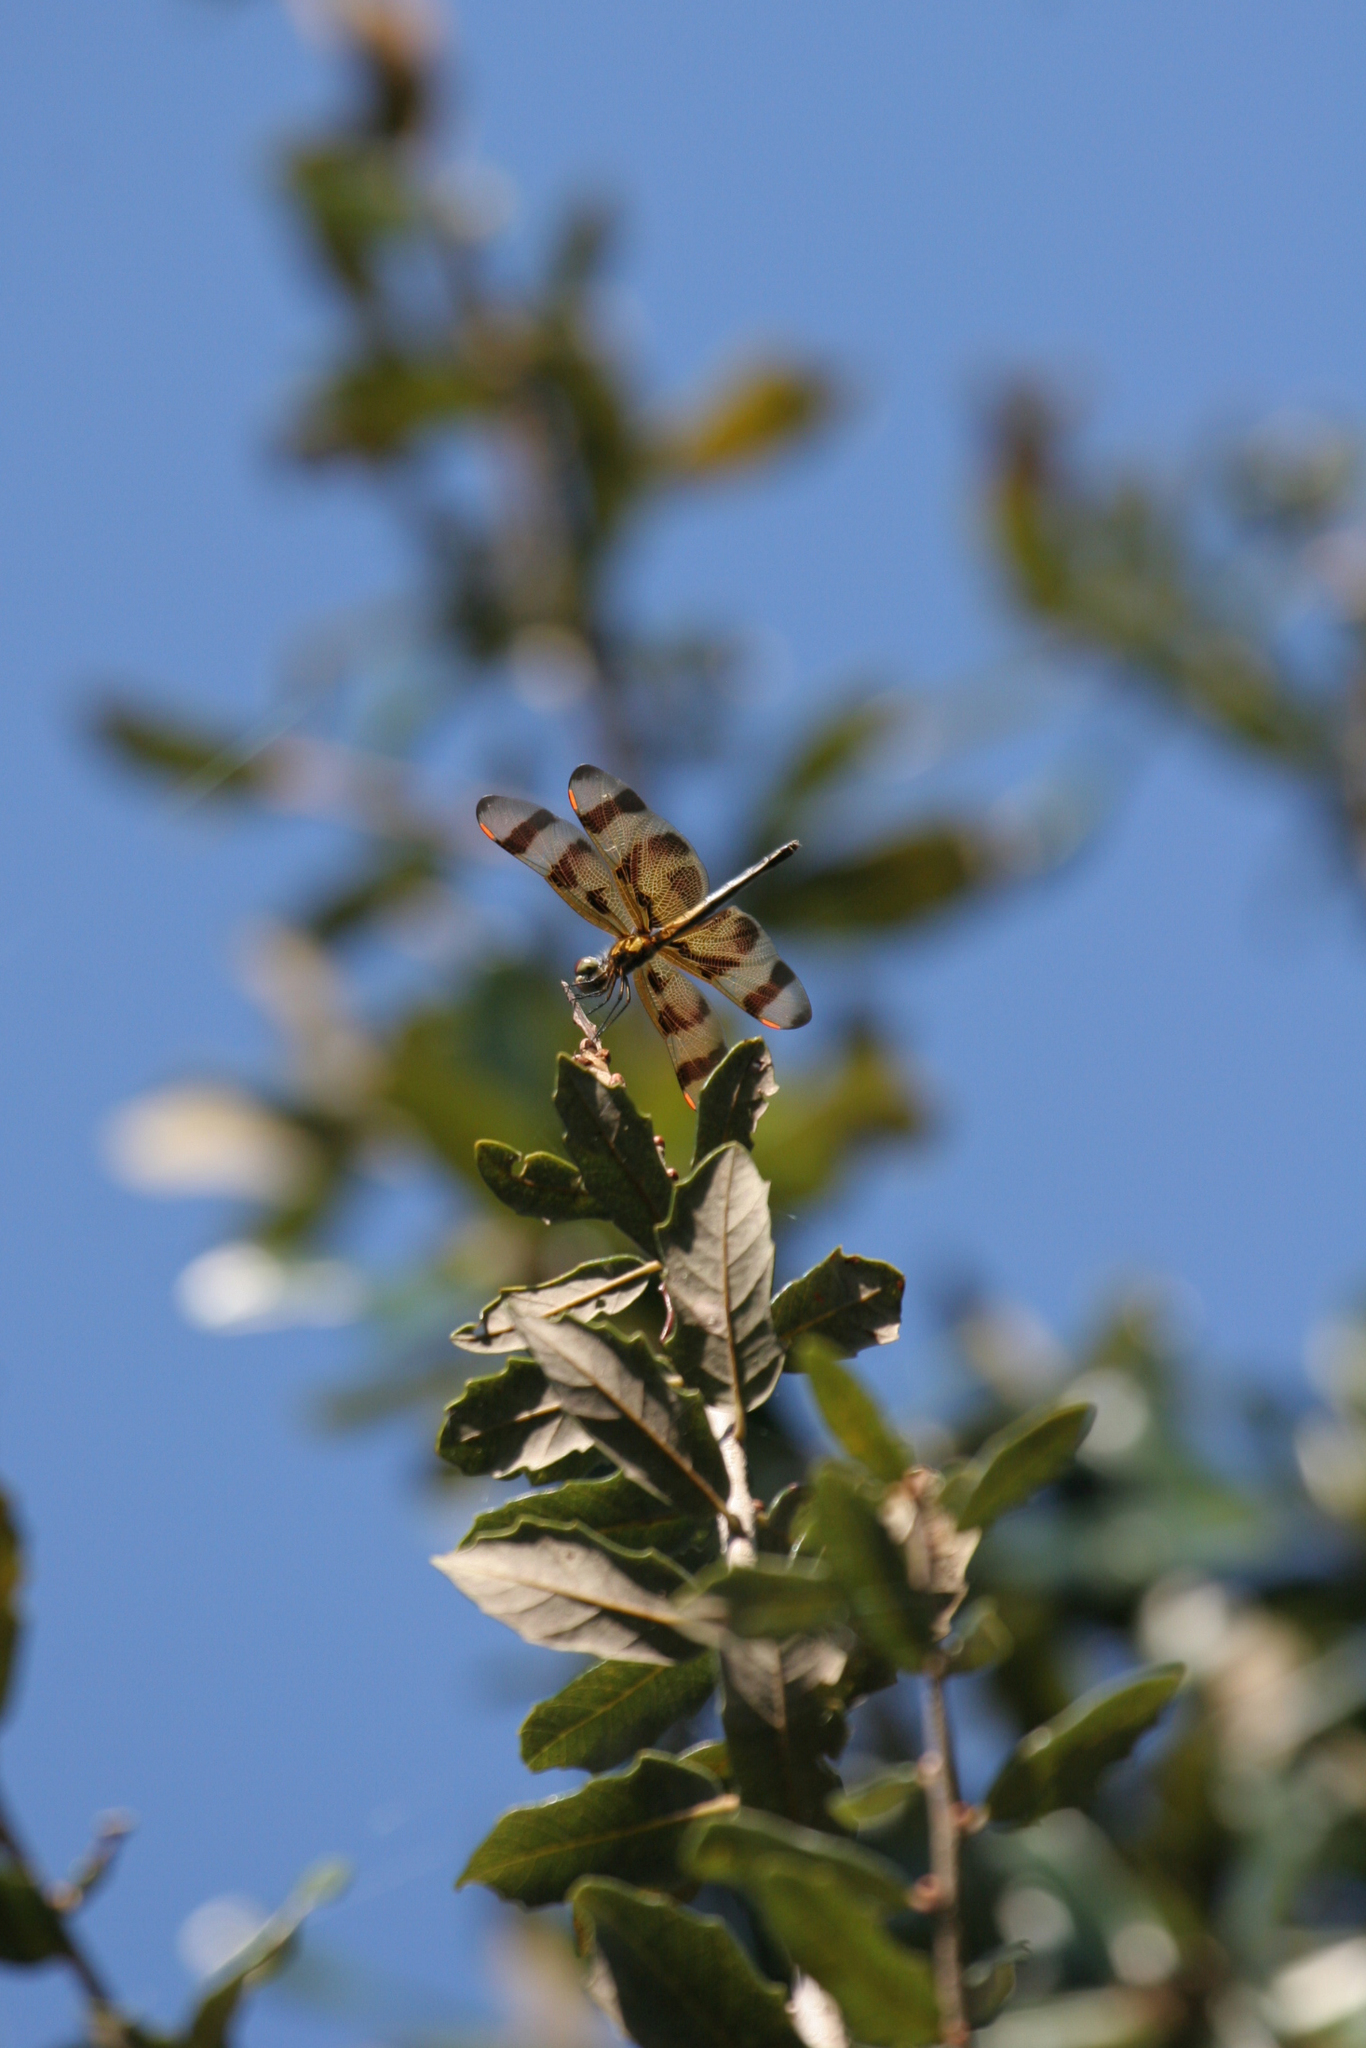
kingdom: Animalia
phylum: Arthropoda
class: Insecta
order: Odonata
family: Libellulidae
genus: Celithemis
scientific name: Celithemis eponina
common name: Halloween pennant
